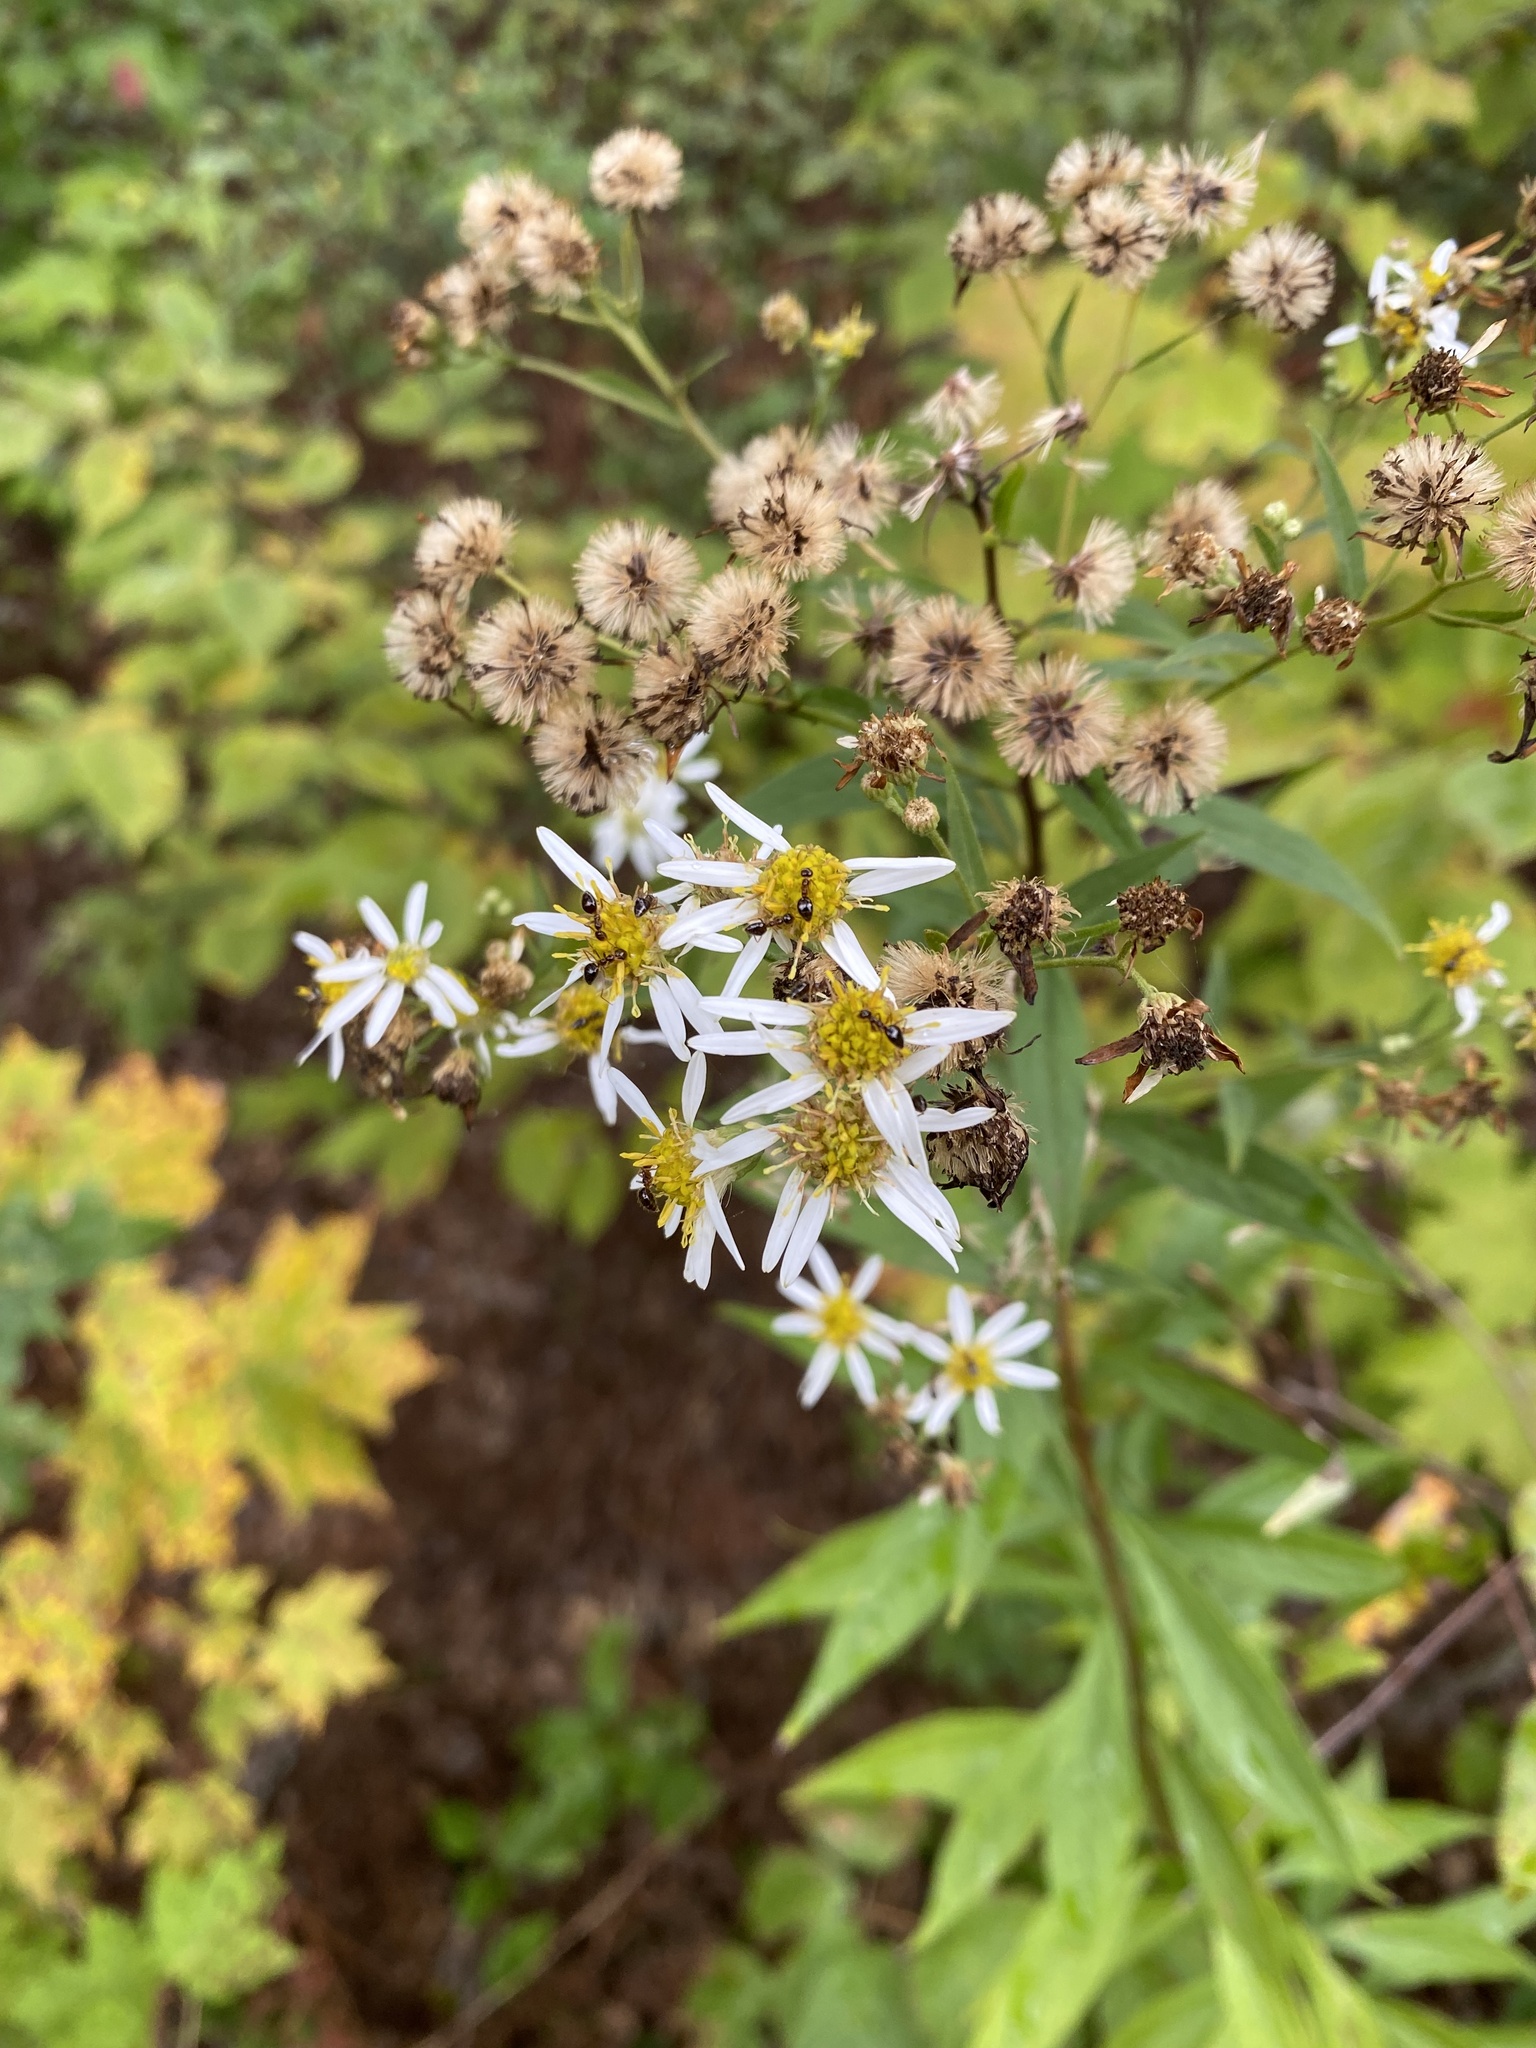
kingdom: Plantae
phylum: Tracheophyta
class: Magnoliopsida
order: Asterales
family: Asteraceae
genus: Doellingeria
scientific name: Doellingeria umbellata
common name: Flat-top white aster
